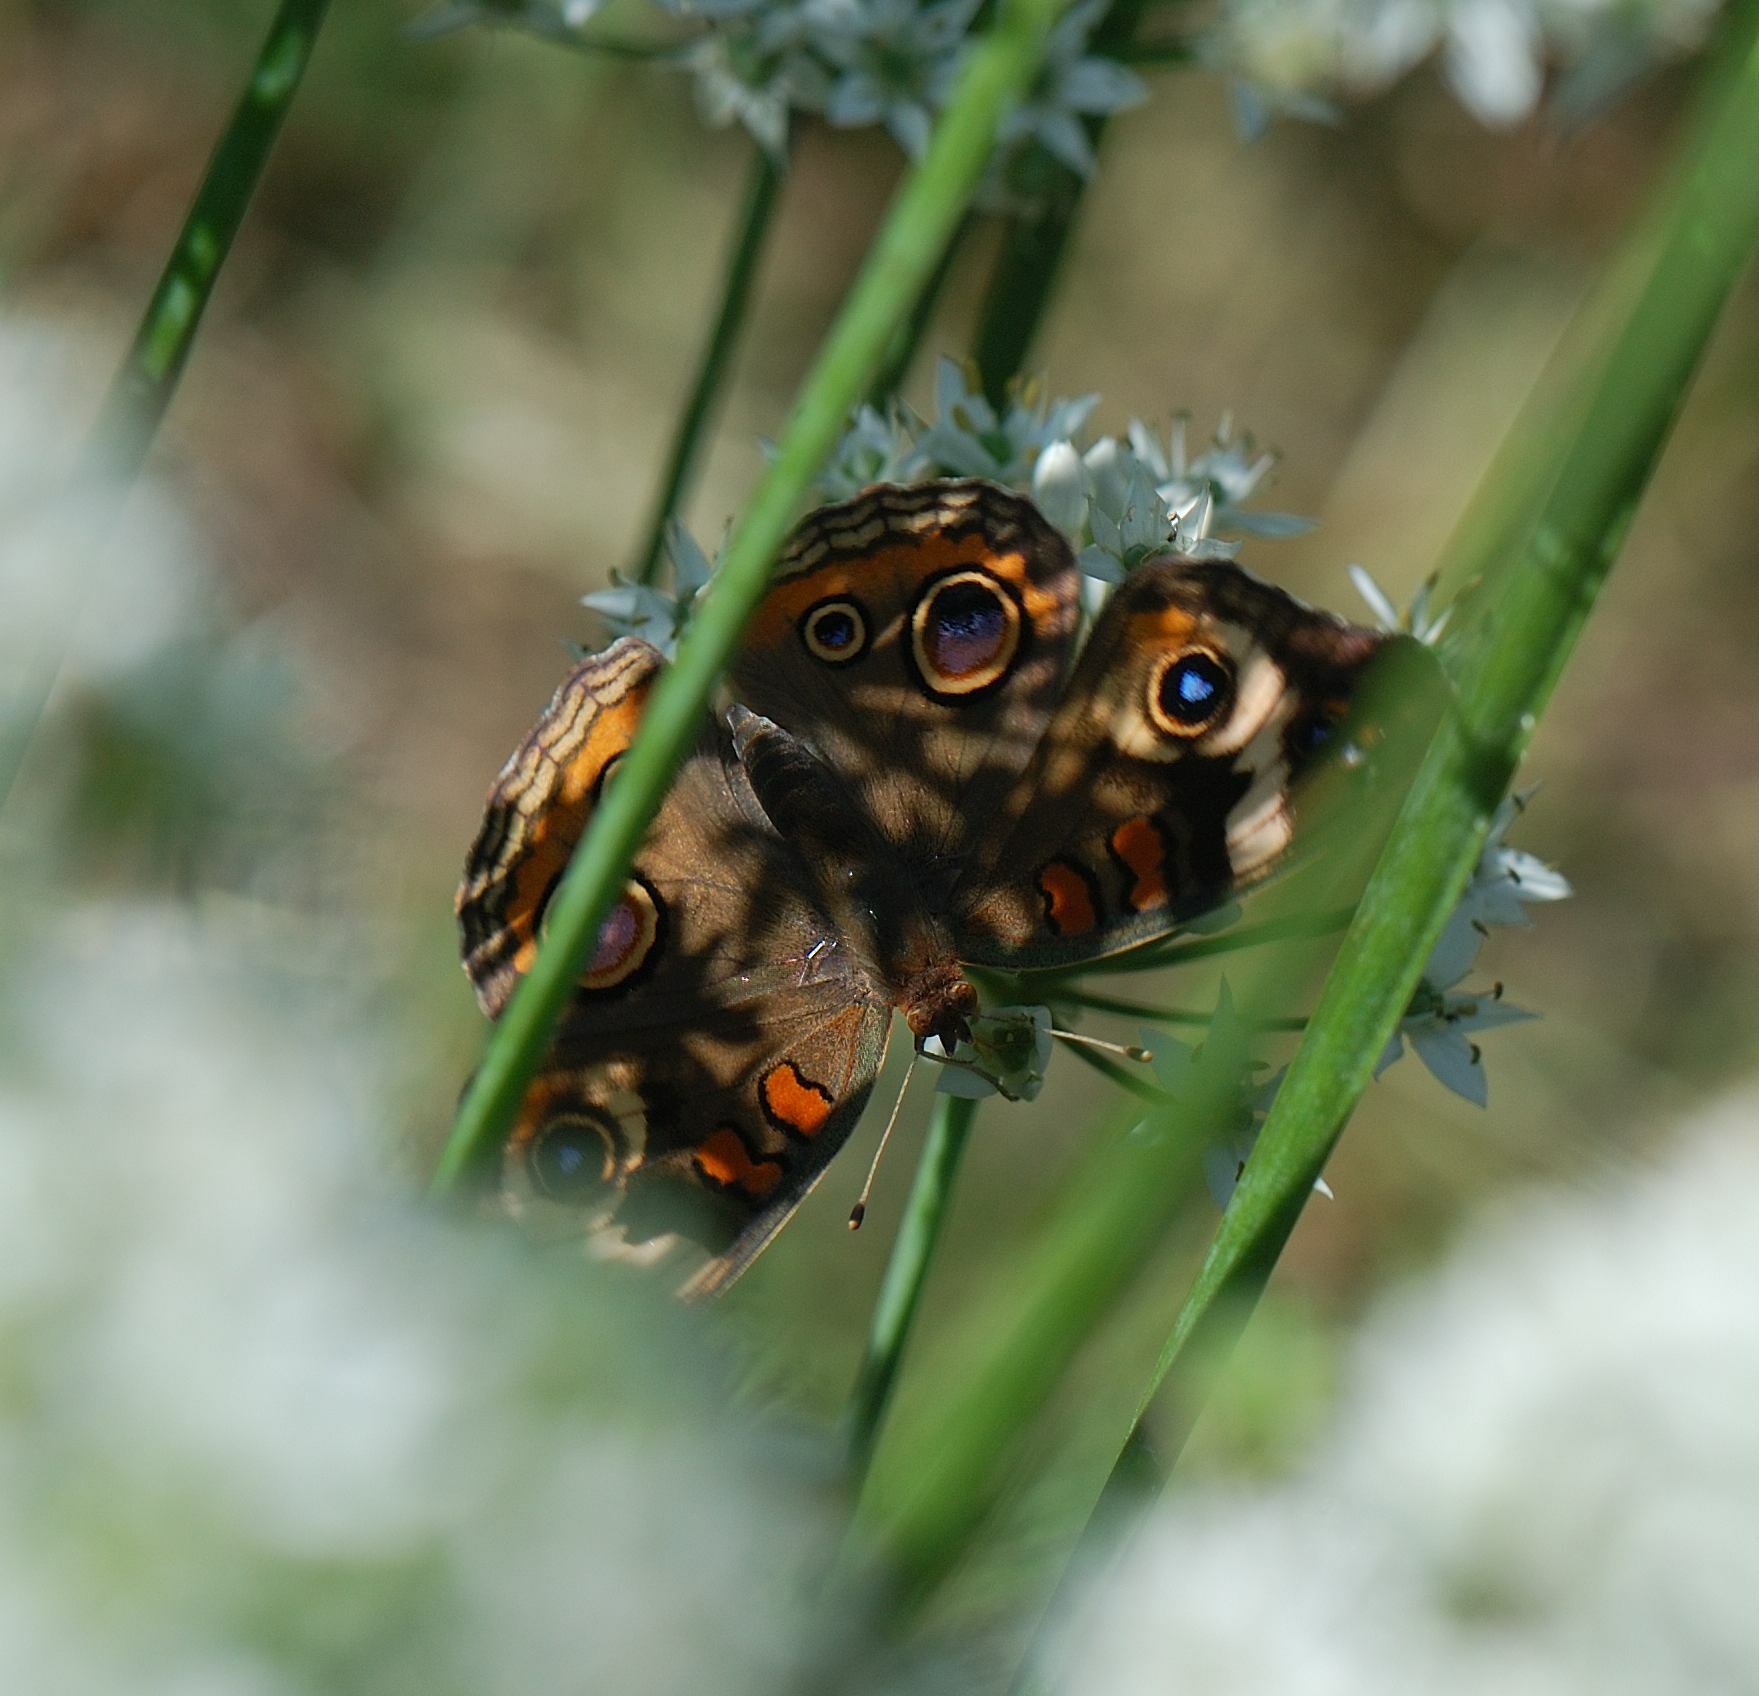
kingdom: Animalia
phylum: Arthropoda
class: Insecta
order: Lepidoptera
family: Nymphalidae
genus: Junonia
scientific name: Junonia coenia
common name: Common buckeye
